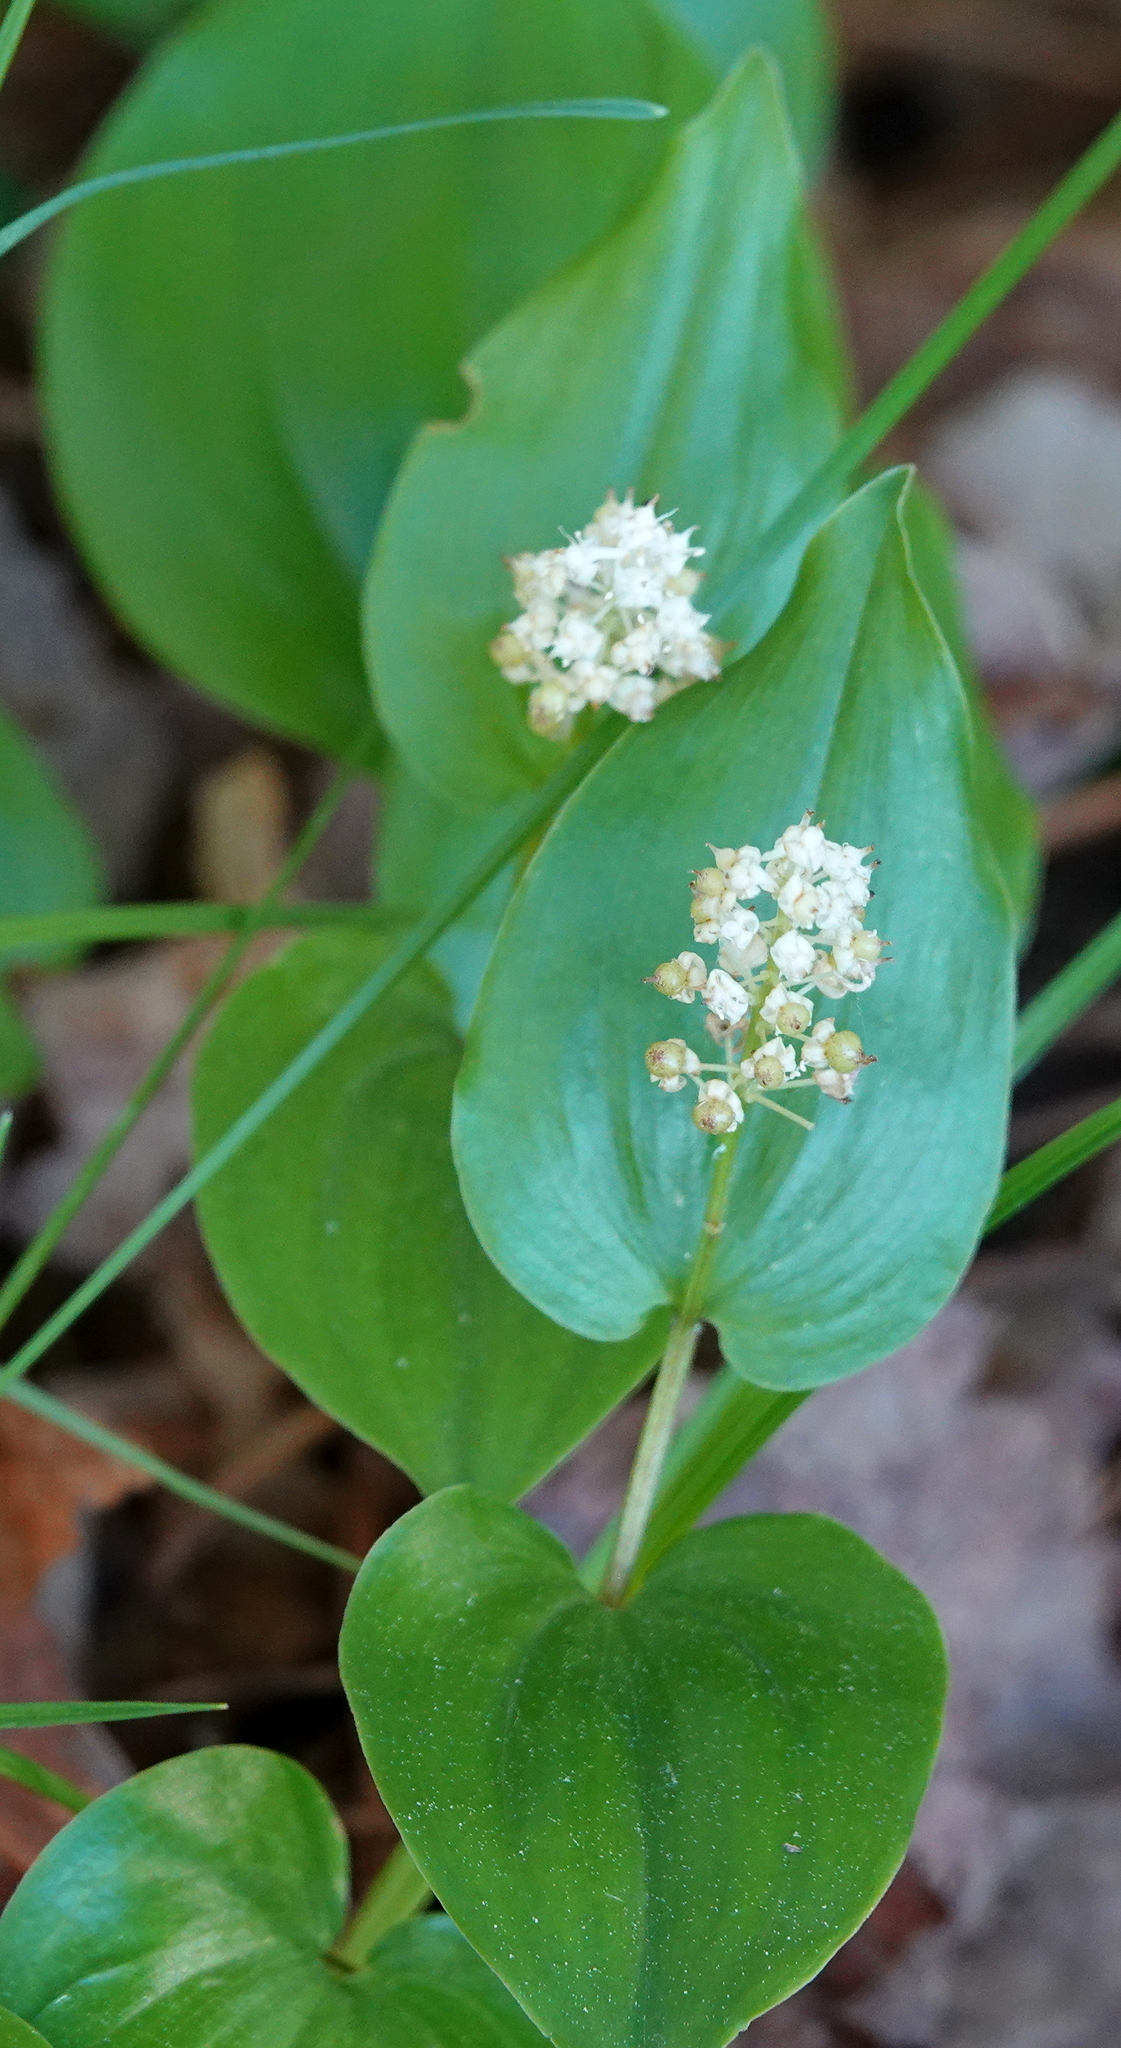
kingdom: Plantae
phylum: Tracheophyta
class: Liliopsida
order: Asparagales
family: Asparagaceae
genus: Maianthemum
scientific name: Maianthemum canadense
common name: False lily-of-the-valley
